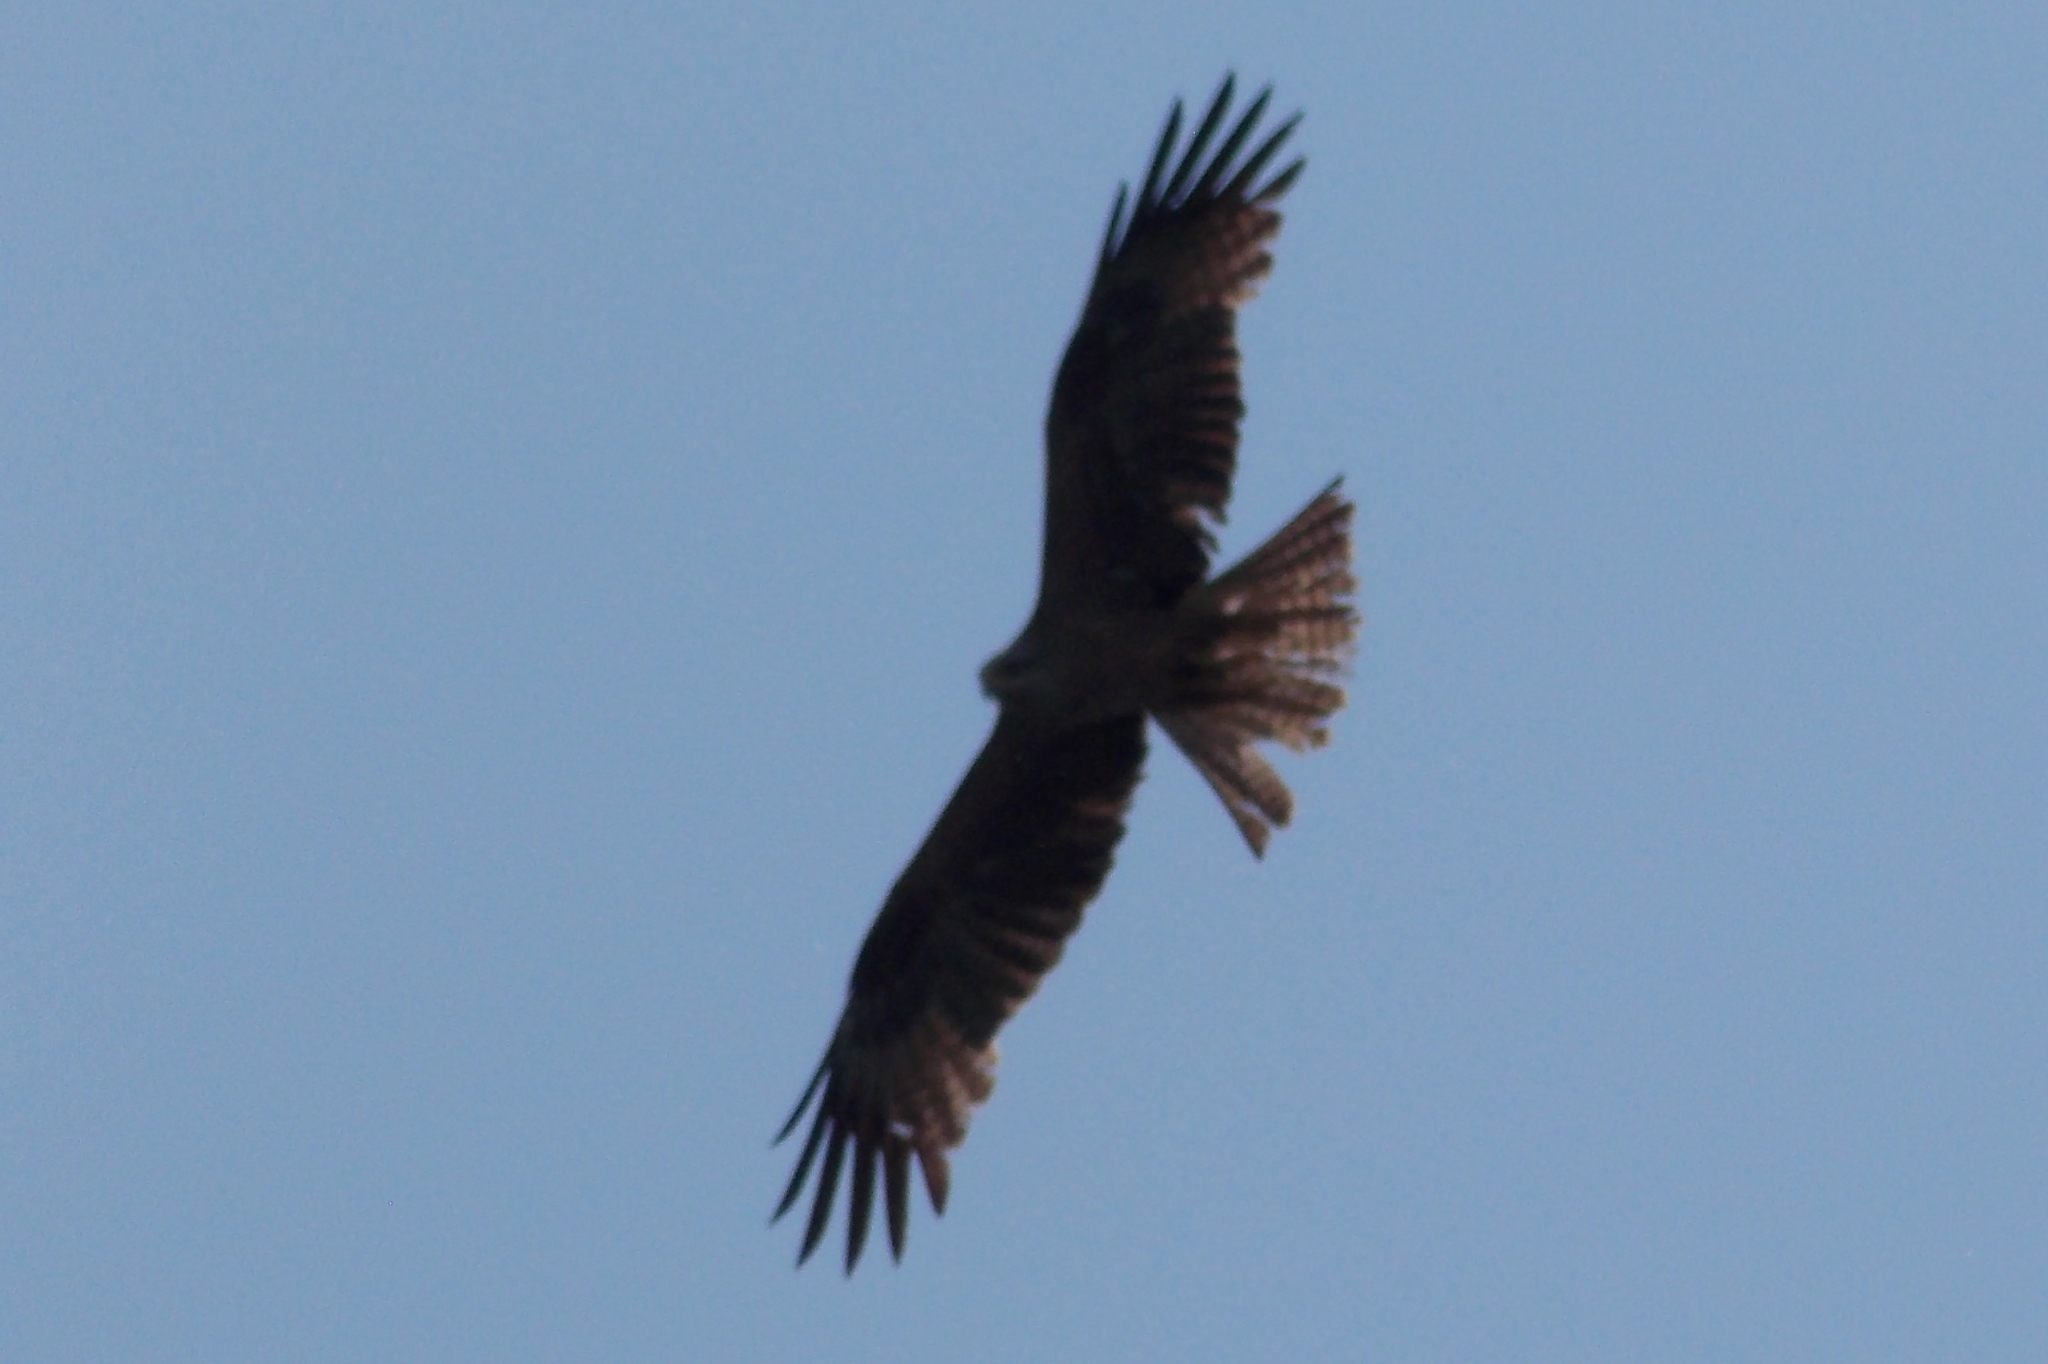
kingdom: Animalia
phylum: Chordata
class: Aves
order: Accipitriformes
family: Accipitridae
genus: Milvus
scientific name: Milvus migrans
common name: Black kite
